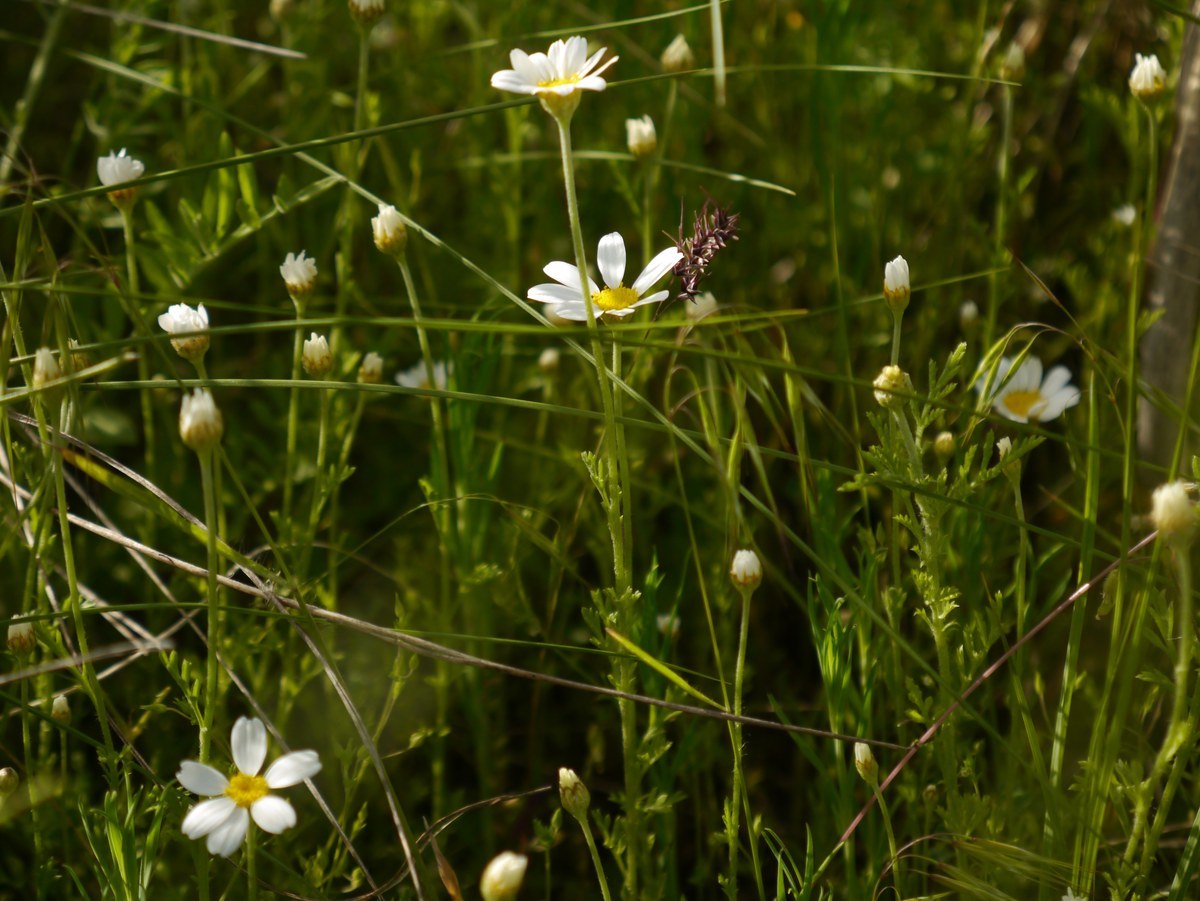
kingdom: Plantae
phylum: Tracheophyta
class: Magnoliopsida
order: Asterales
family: Asteraceae
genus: Anthemis
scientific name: Anthemis ruthenica
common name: Eastern chamomile
